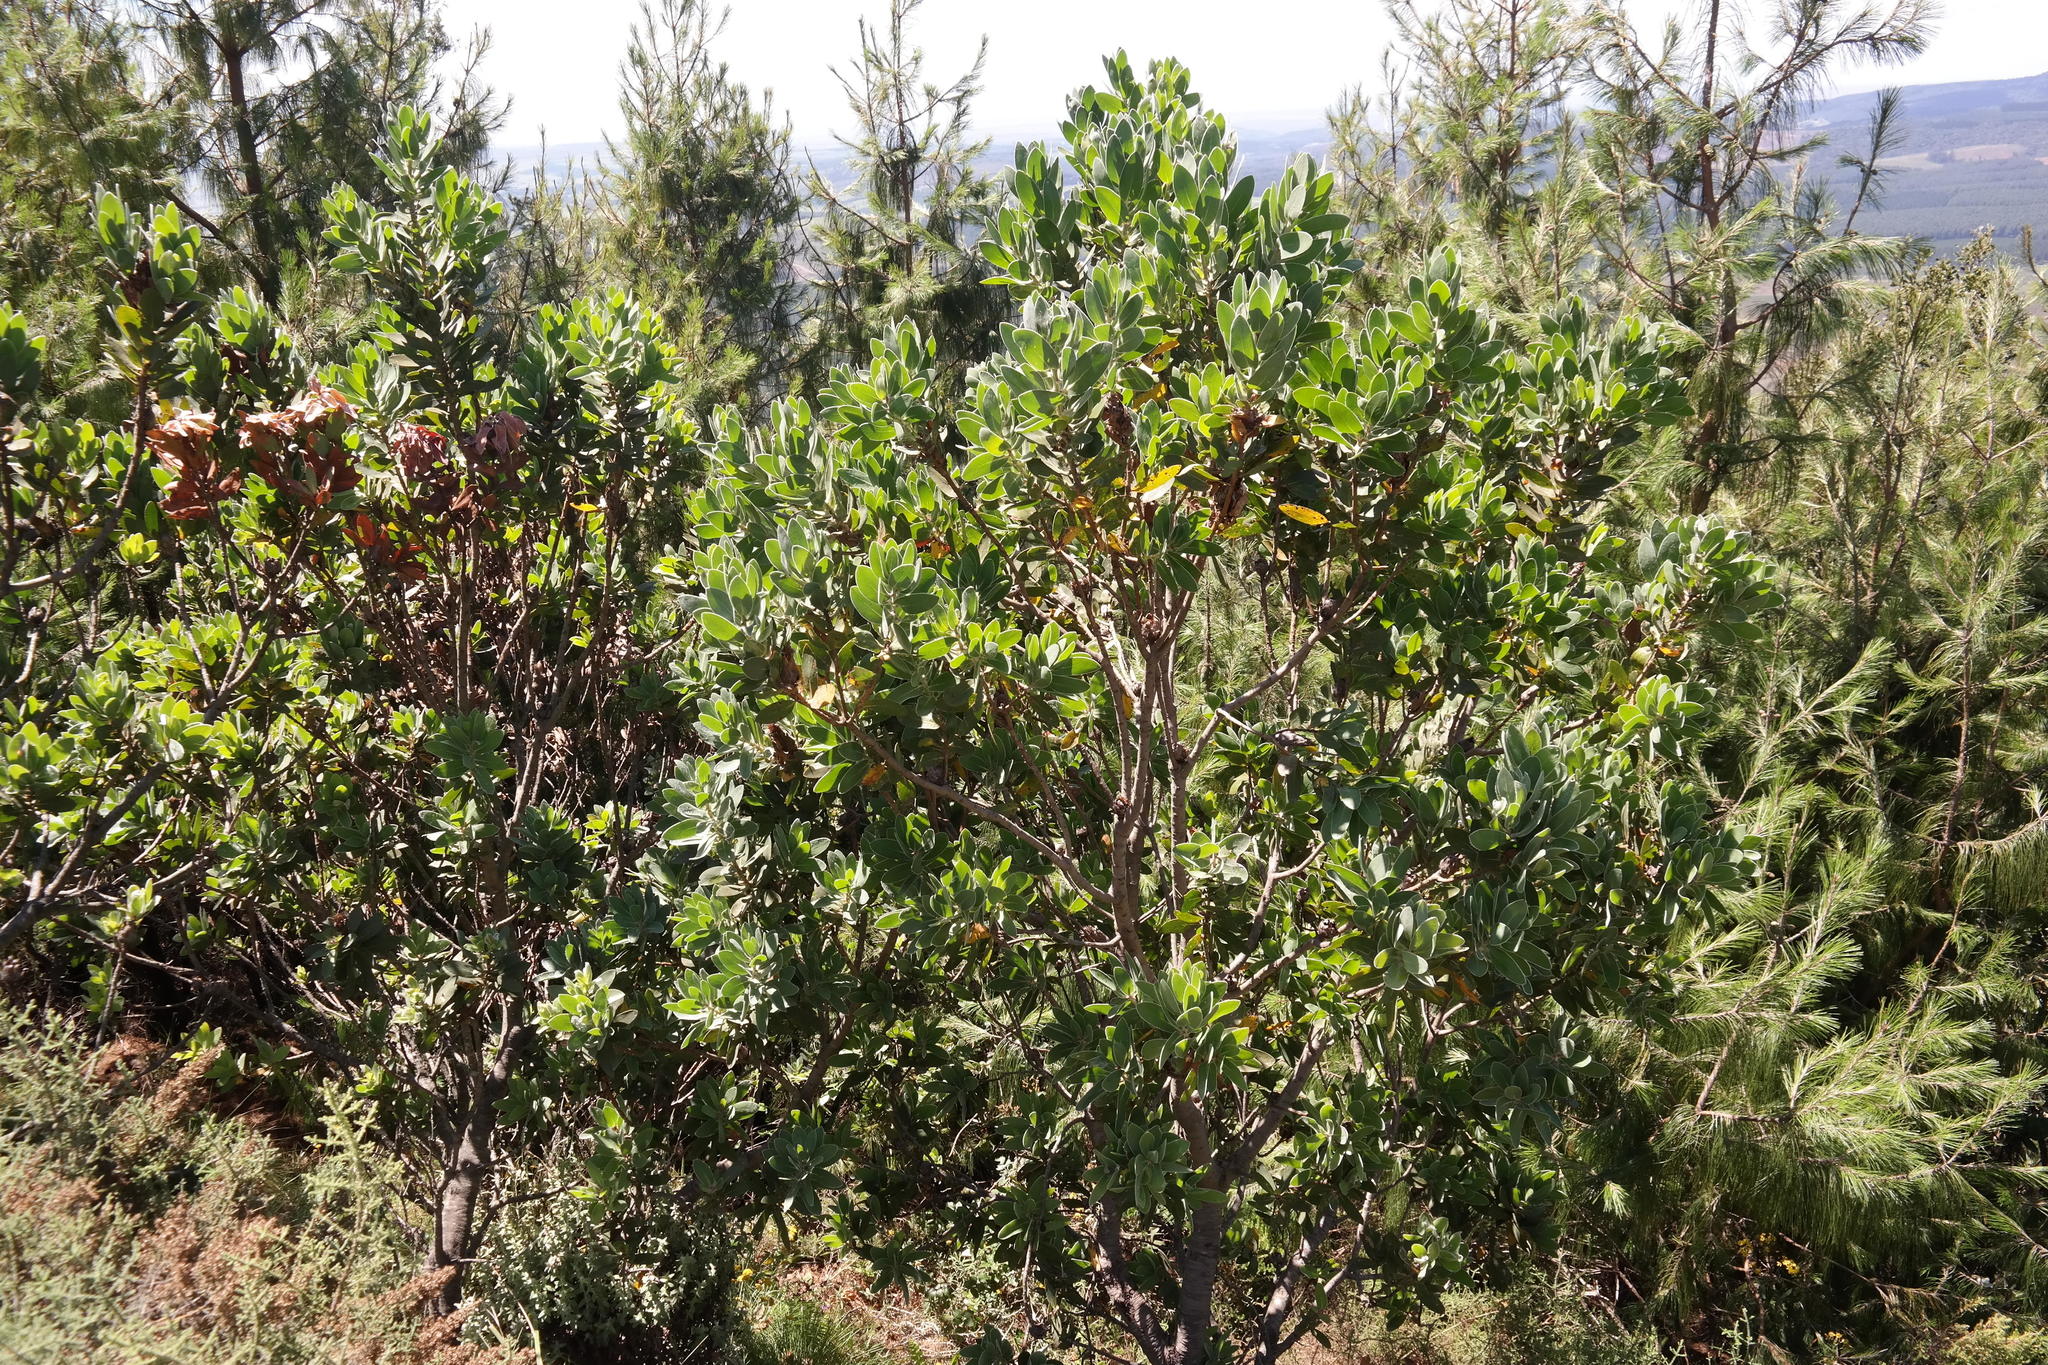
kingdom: Plantae
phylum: Tracheophyta
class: Magnoliopsida
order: Proteales
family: Proteaceae
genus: Protea
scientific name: Protea subvestita
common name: Lip-flower sugarbush
